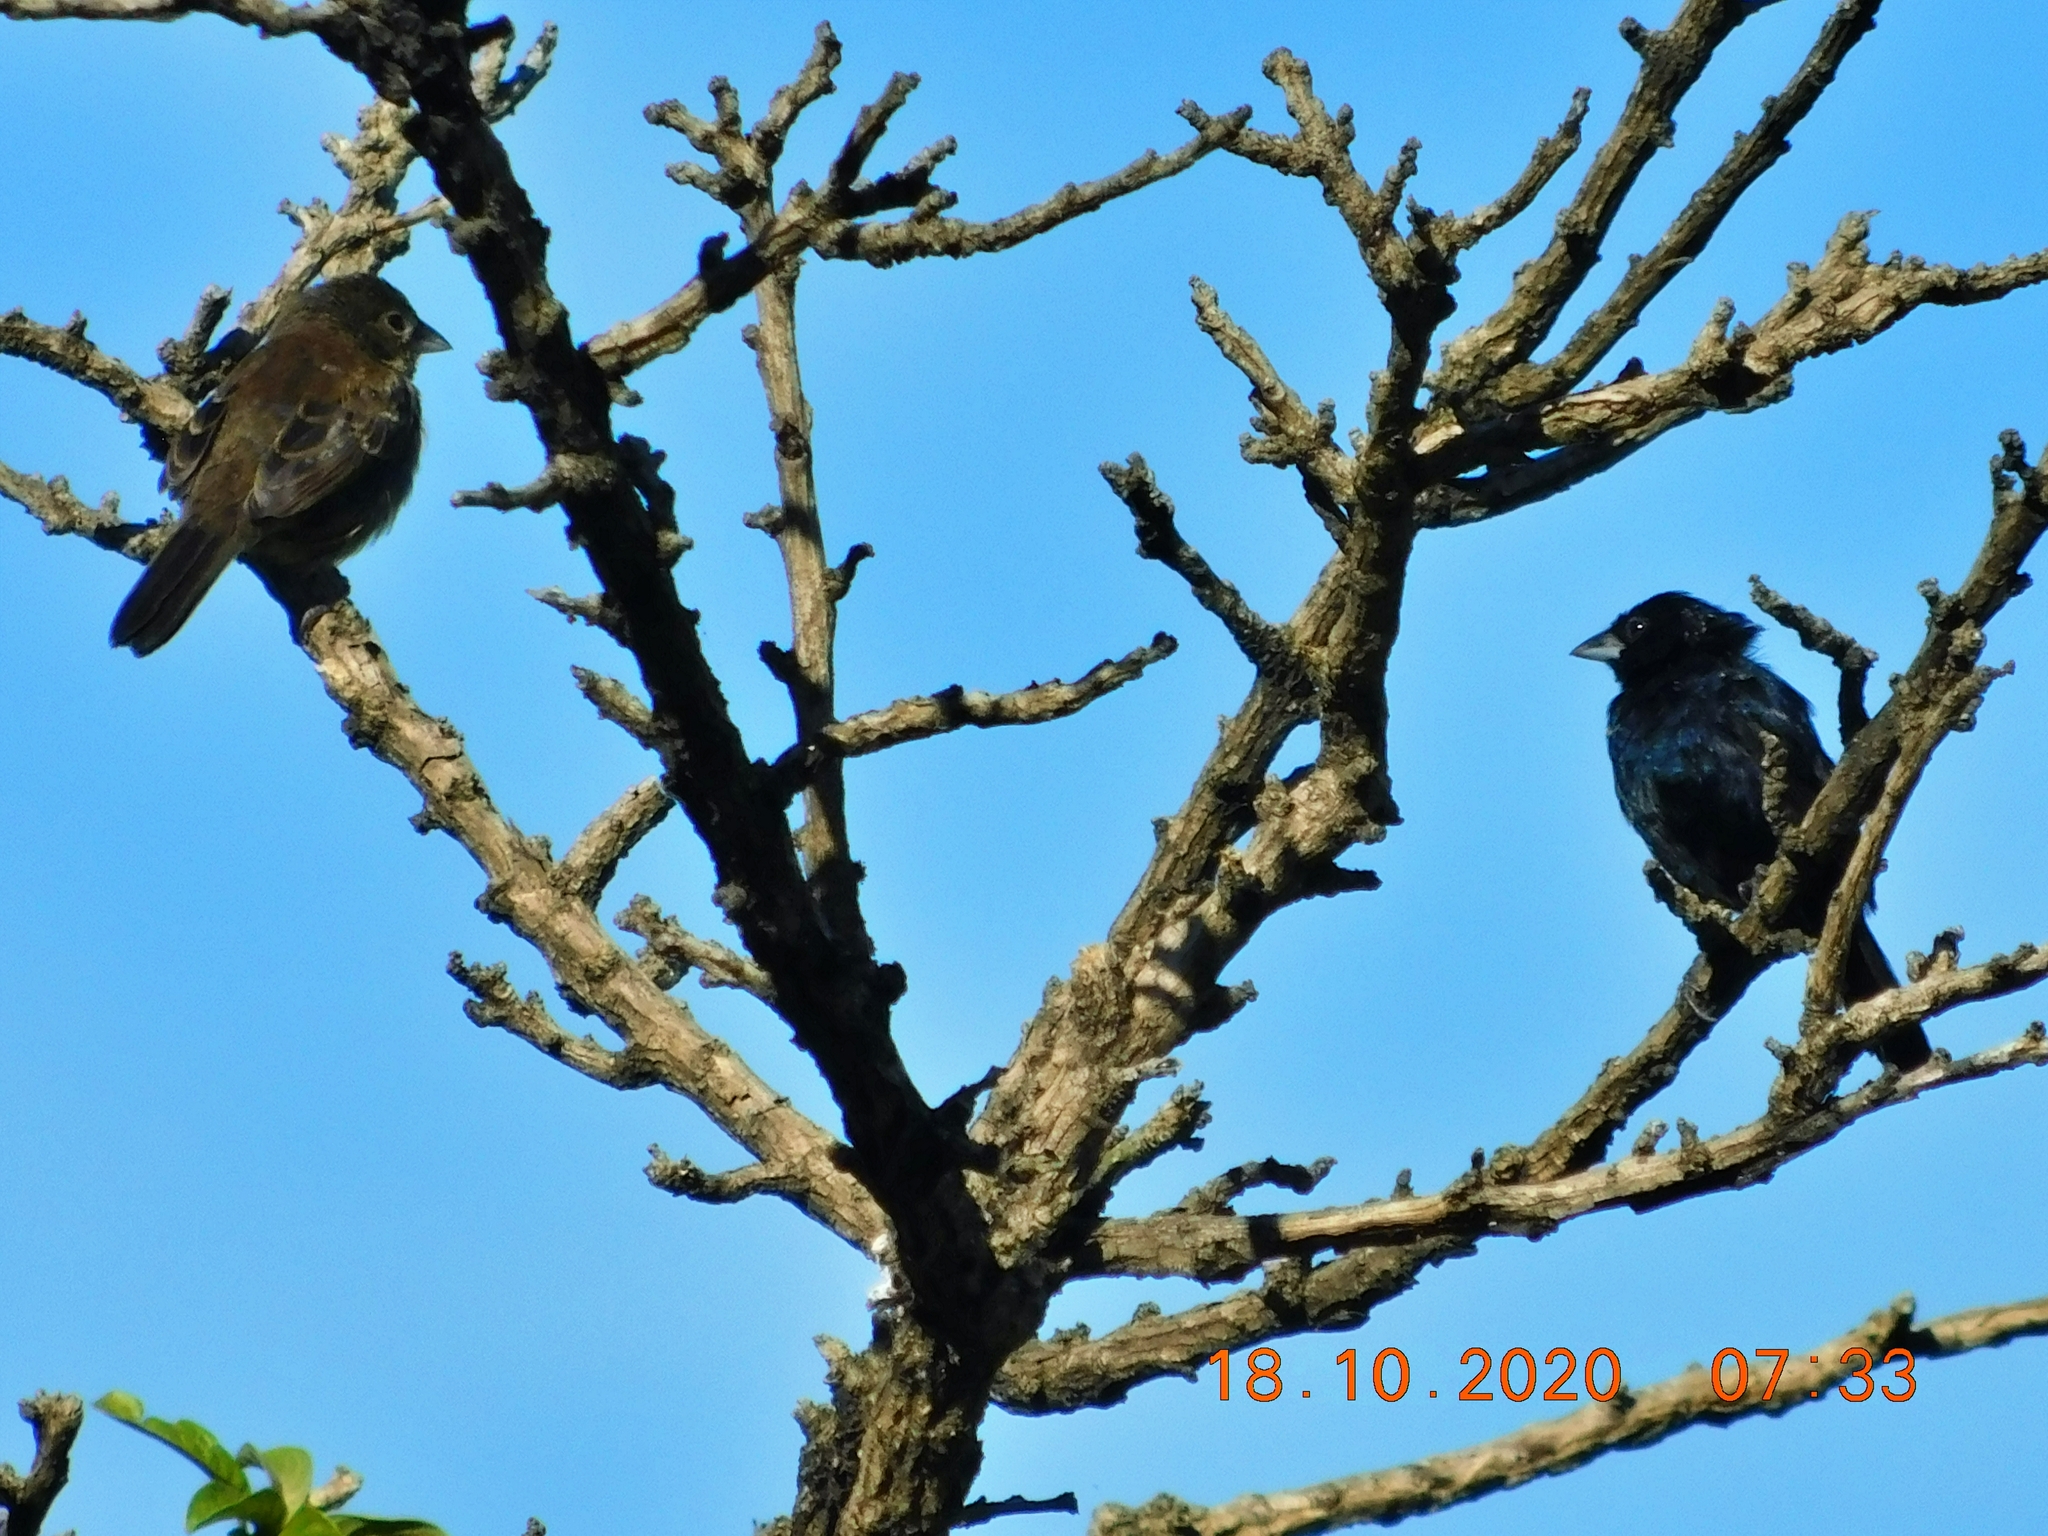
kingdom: Animalia
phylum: Chordata
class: Aves
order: Passeriformes
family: Thraupidae
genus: Volatinia
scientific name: Volatinia jacarina
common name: Blue-black grassquit
